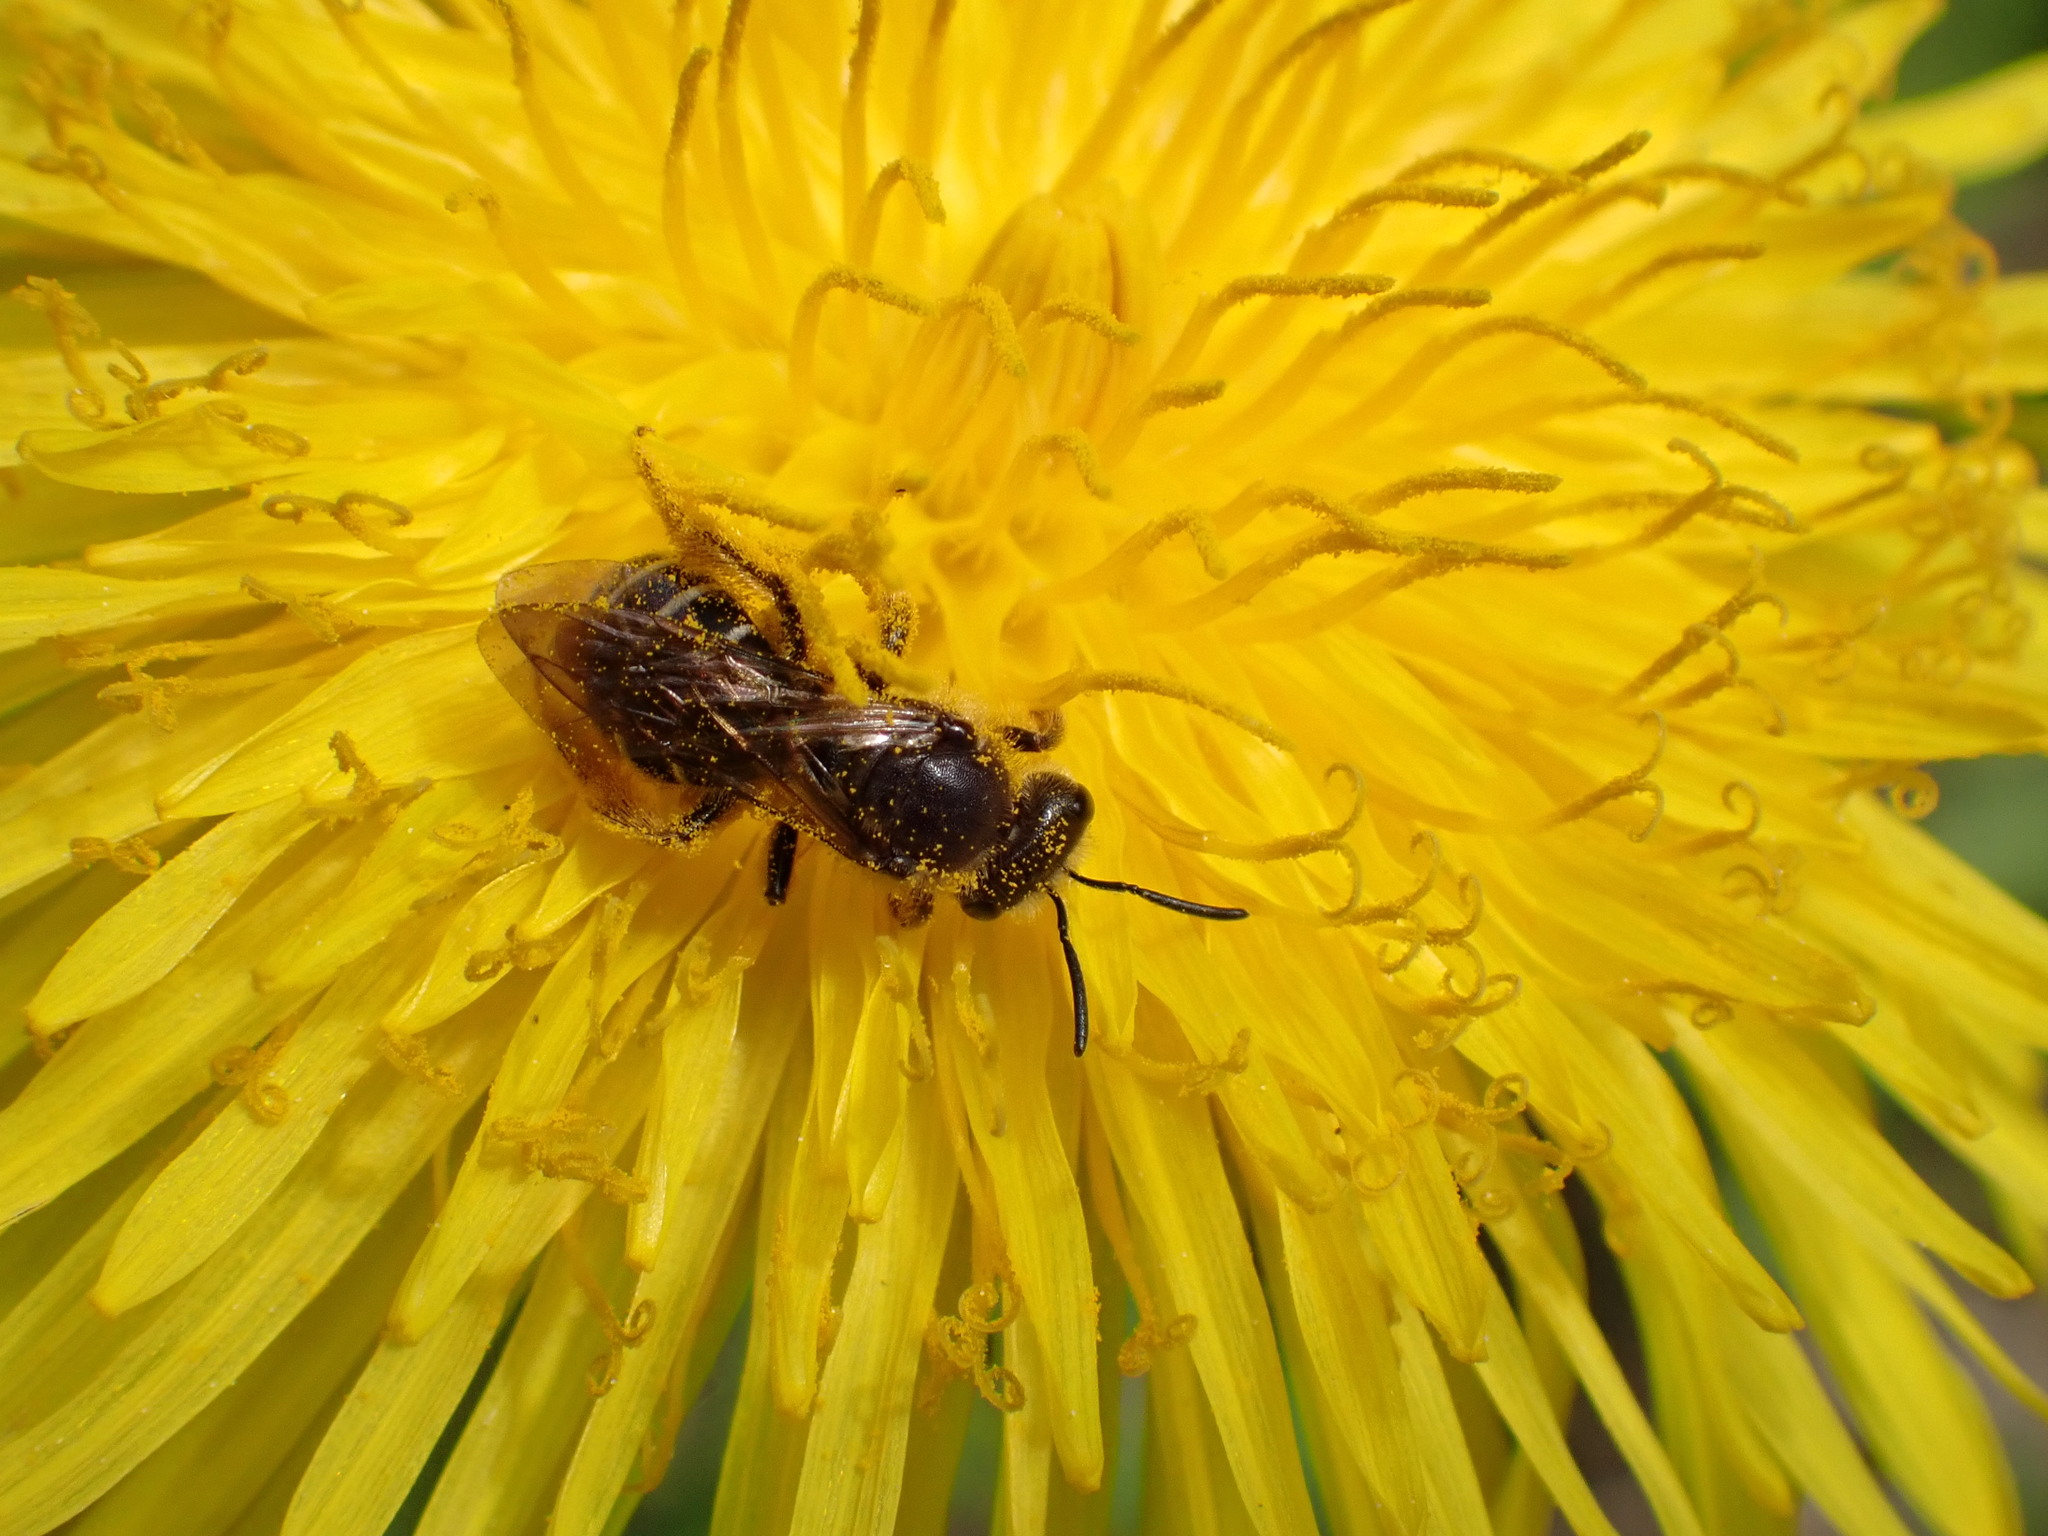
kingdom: Animalia
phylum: Arthropoda
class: Insecta
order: Hymenoptera
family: Halictidae
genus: Halictus
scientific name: Halictus rubicundus
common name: Orange-legged furrow bee
